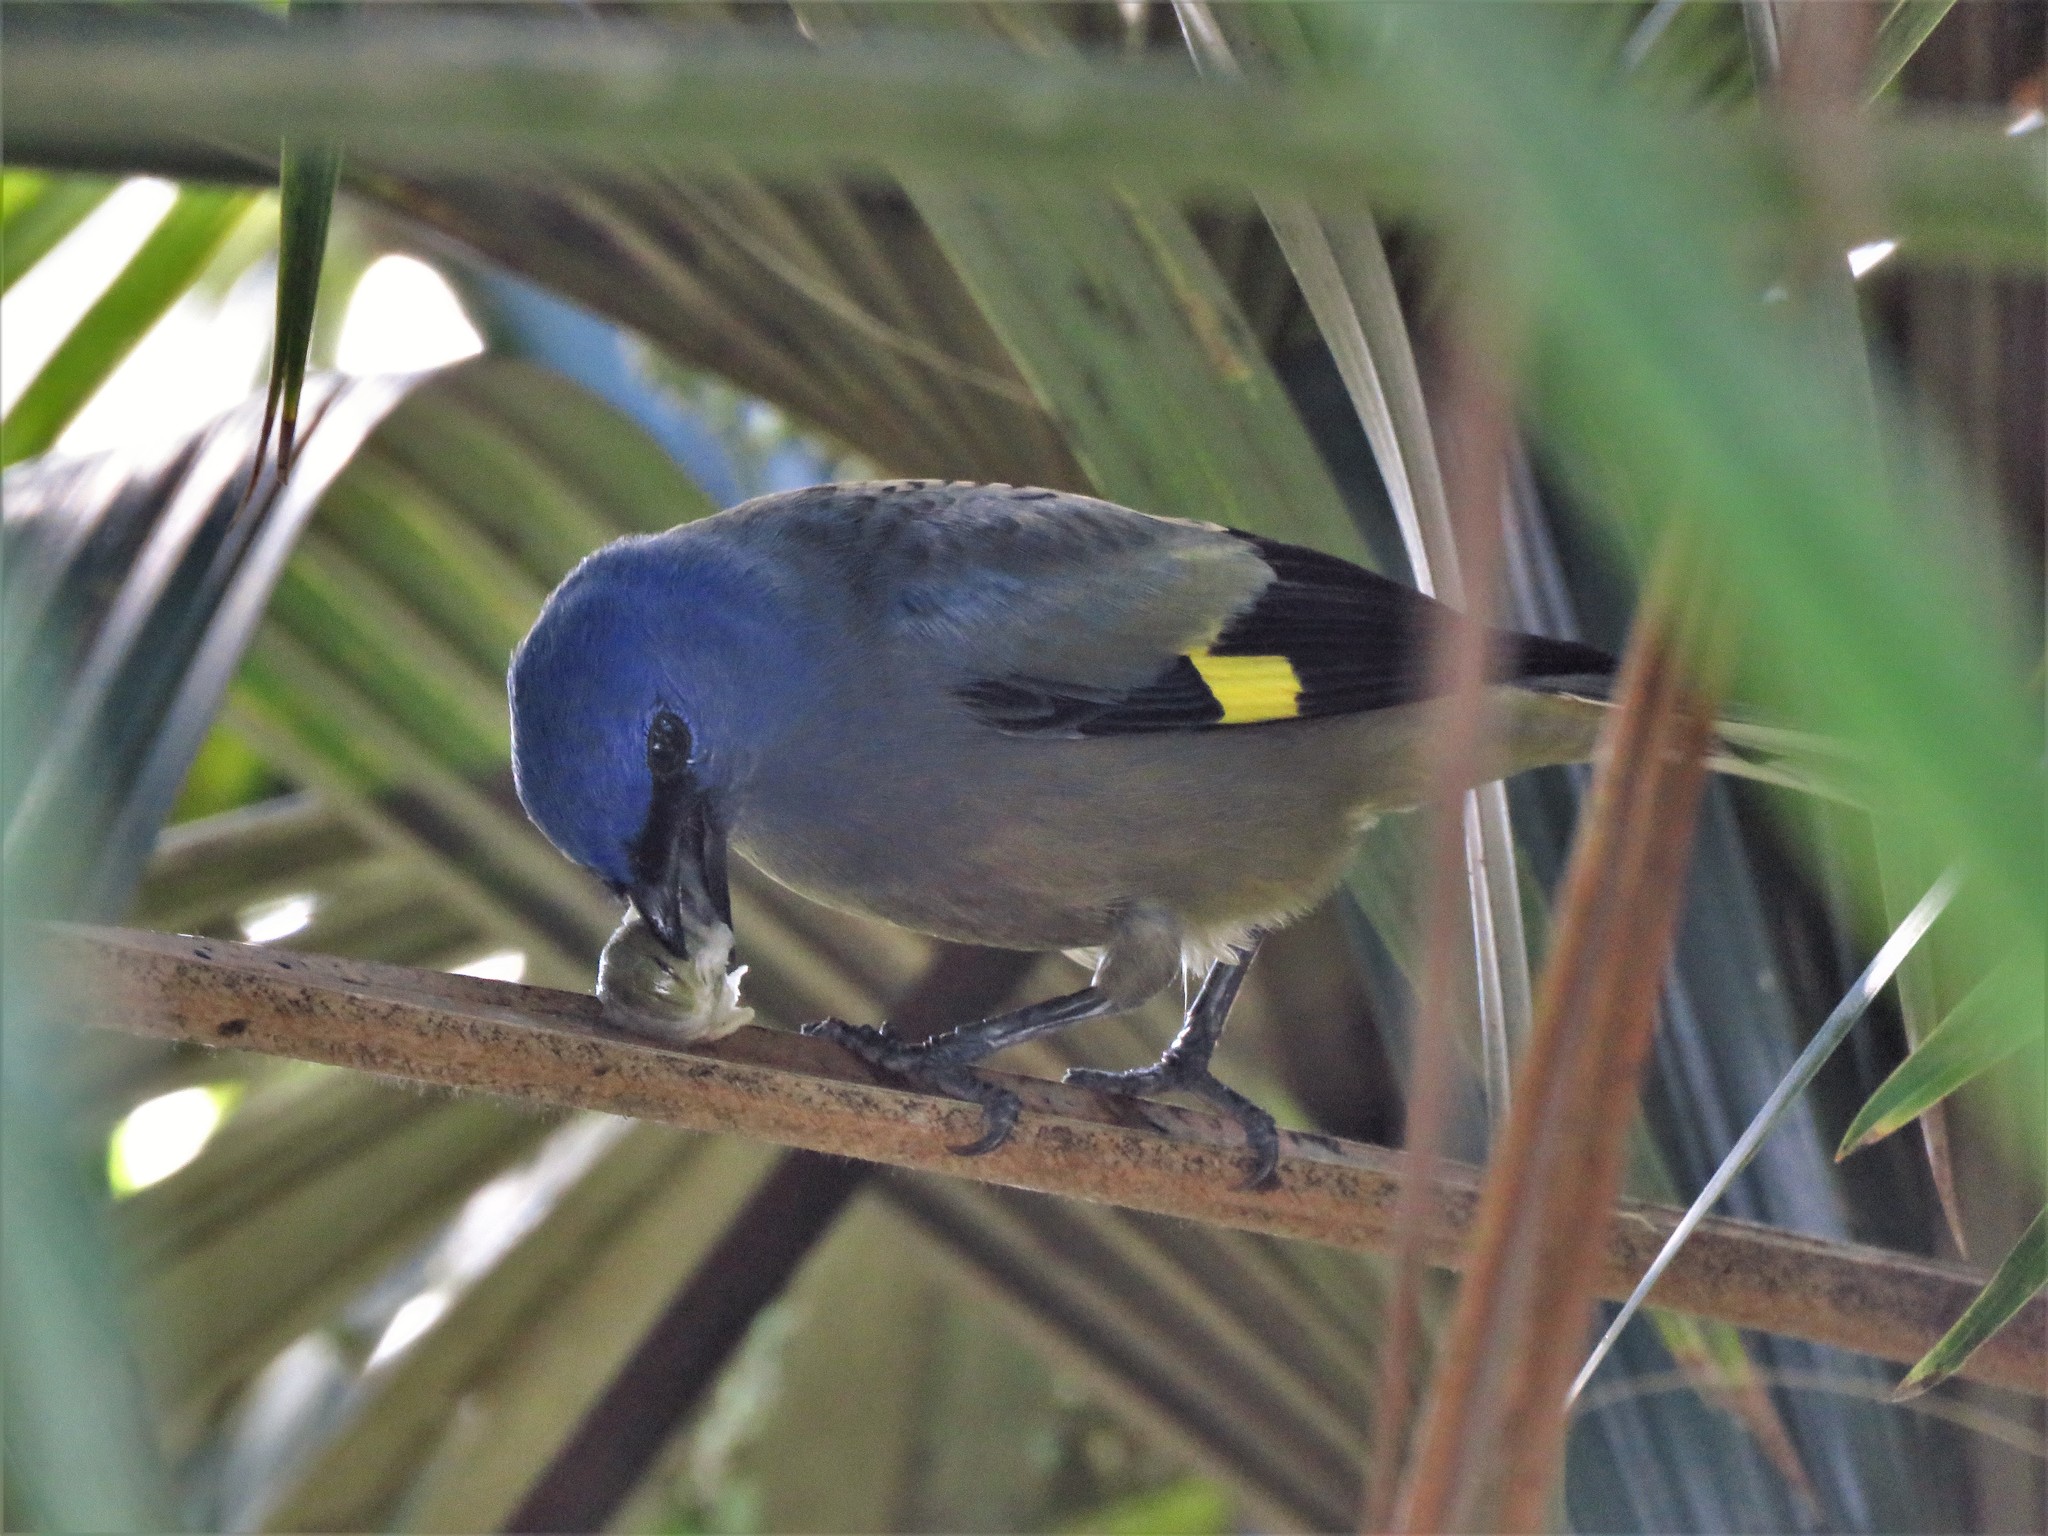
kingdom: Animalia
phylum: Chordata
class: Aves
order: Passeriformes
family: Thraupidae
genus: Thraupis
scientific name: Thraupis abbas
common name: Yellow-winged tanager
